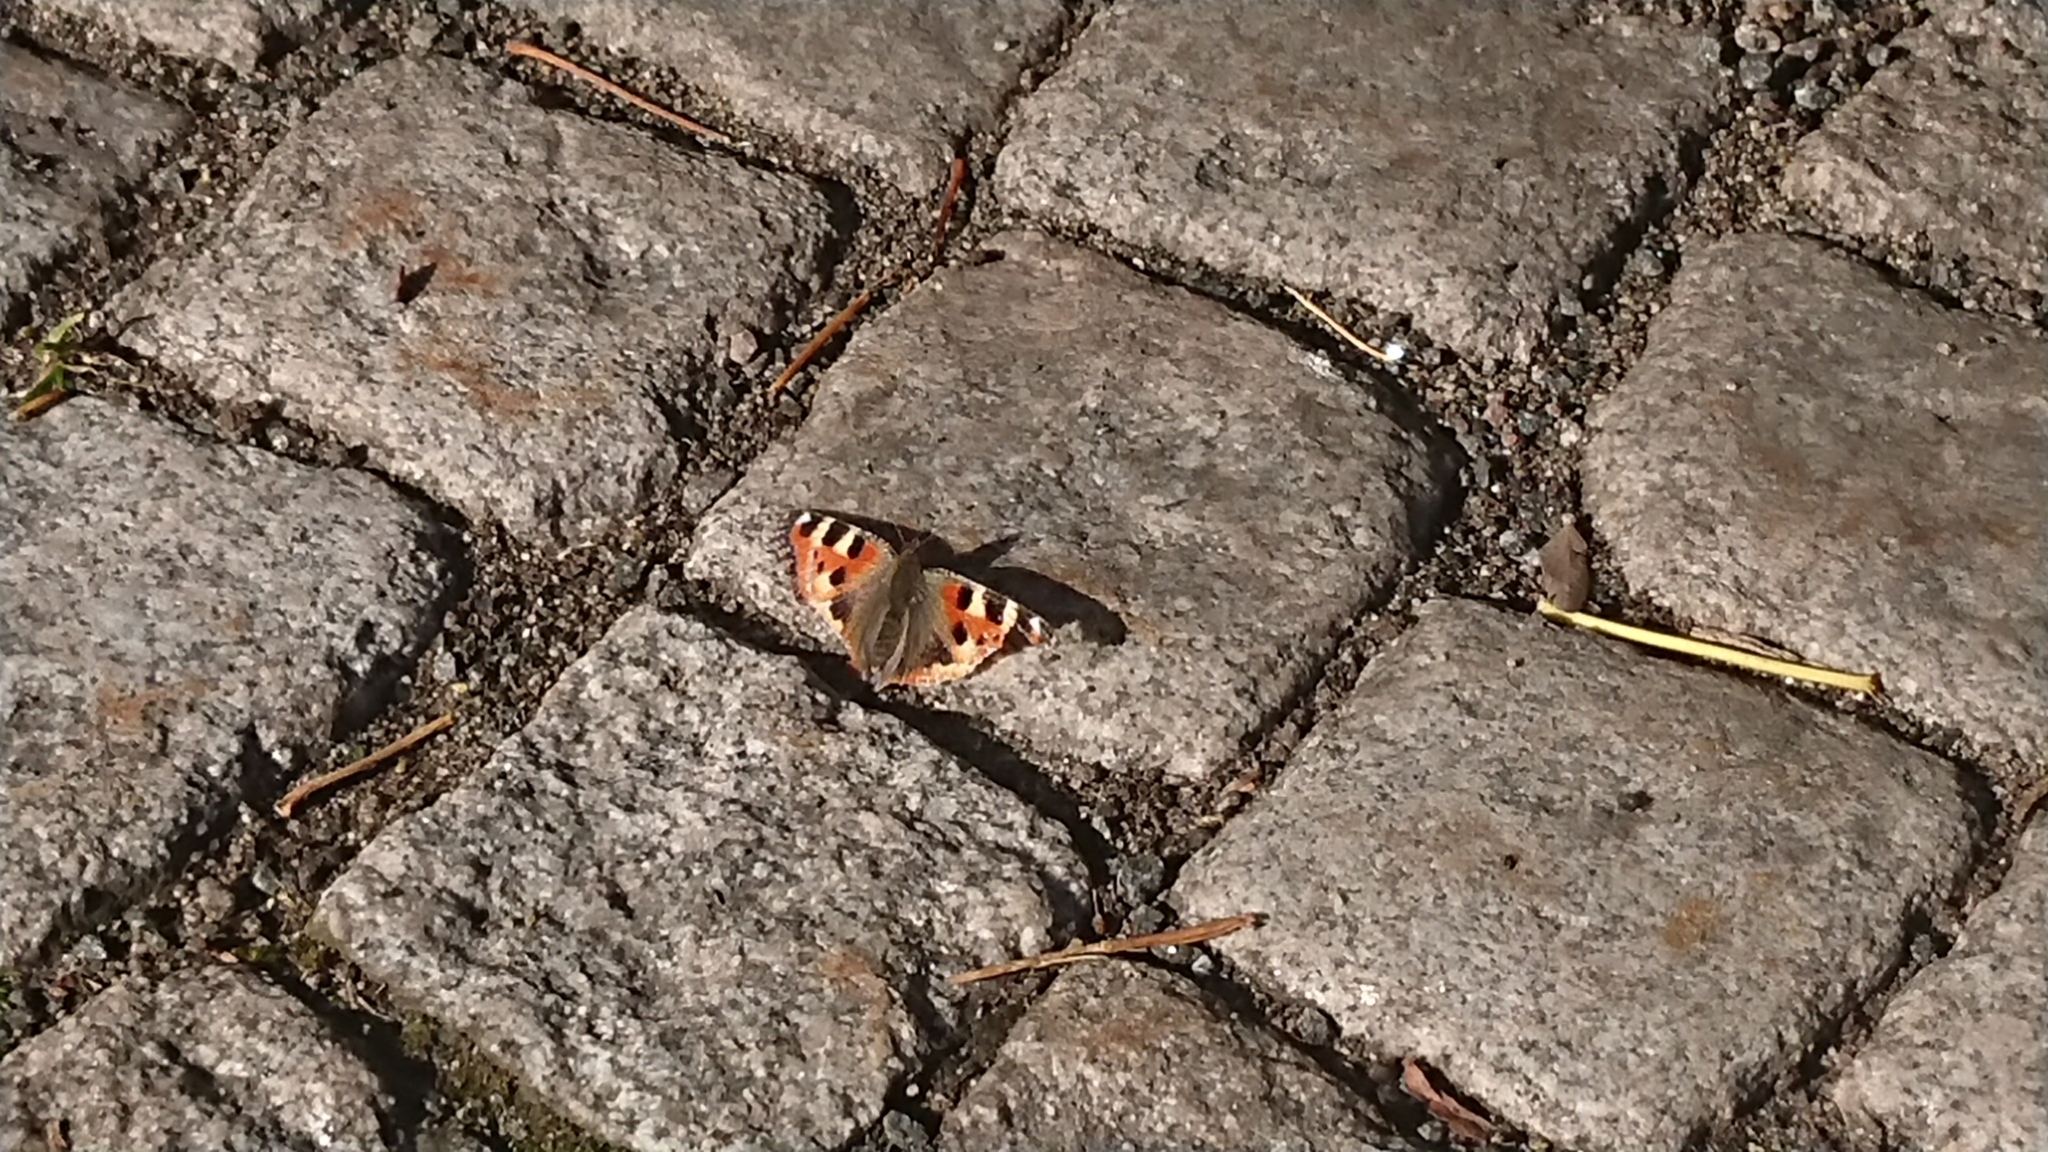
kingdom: Animalia
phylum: Arthropoda
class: Insecta
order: Lepidoptera
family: Nymphalidae
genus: Aglais
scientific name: Aglais urticae
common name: Small tortoiseshell
